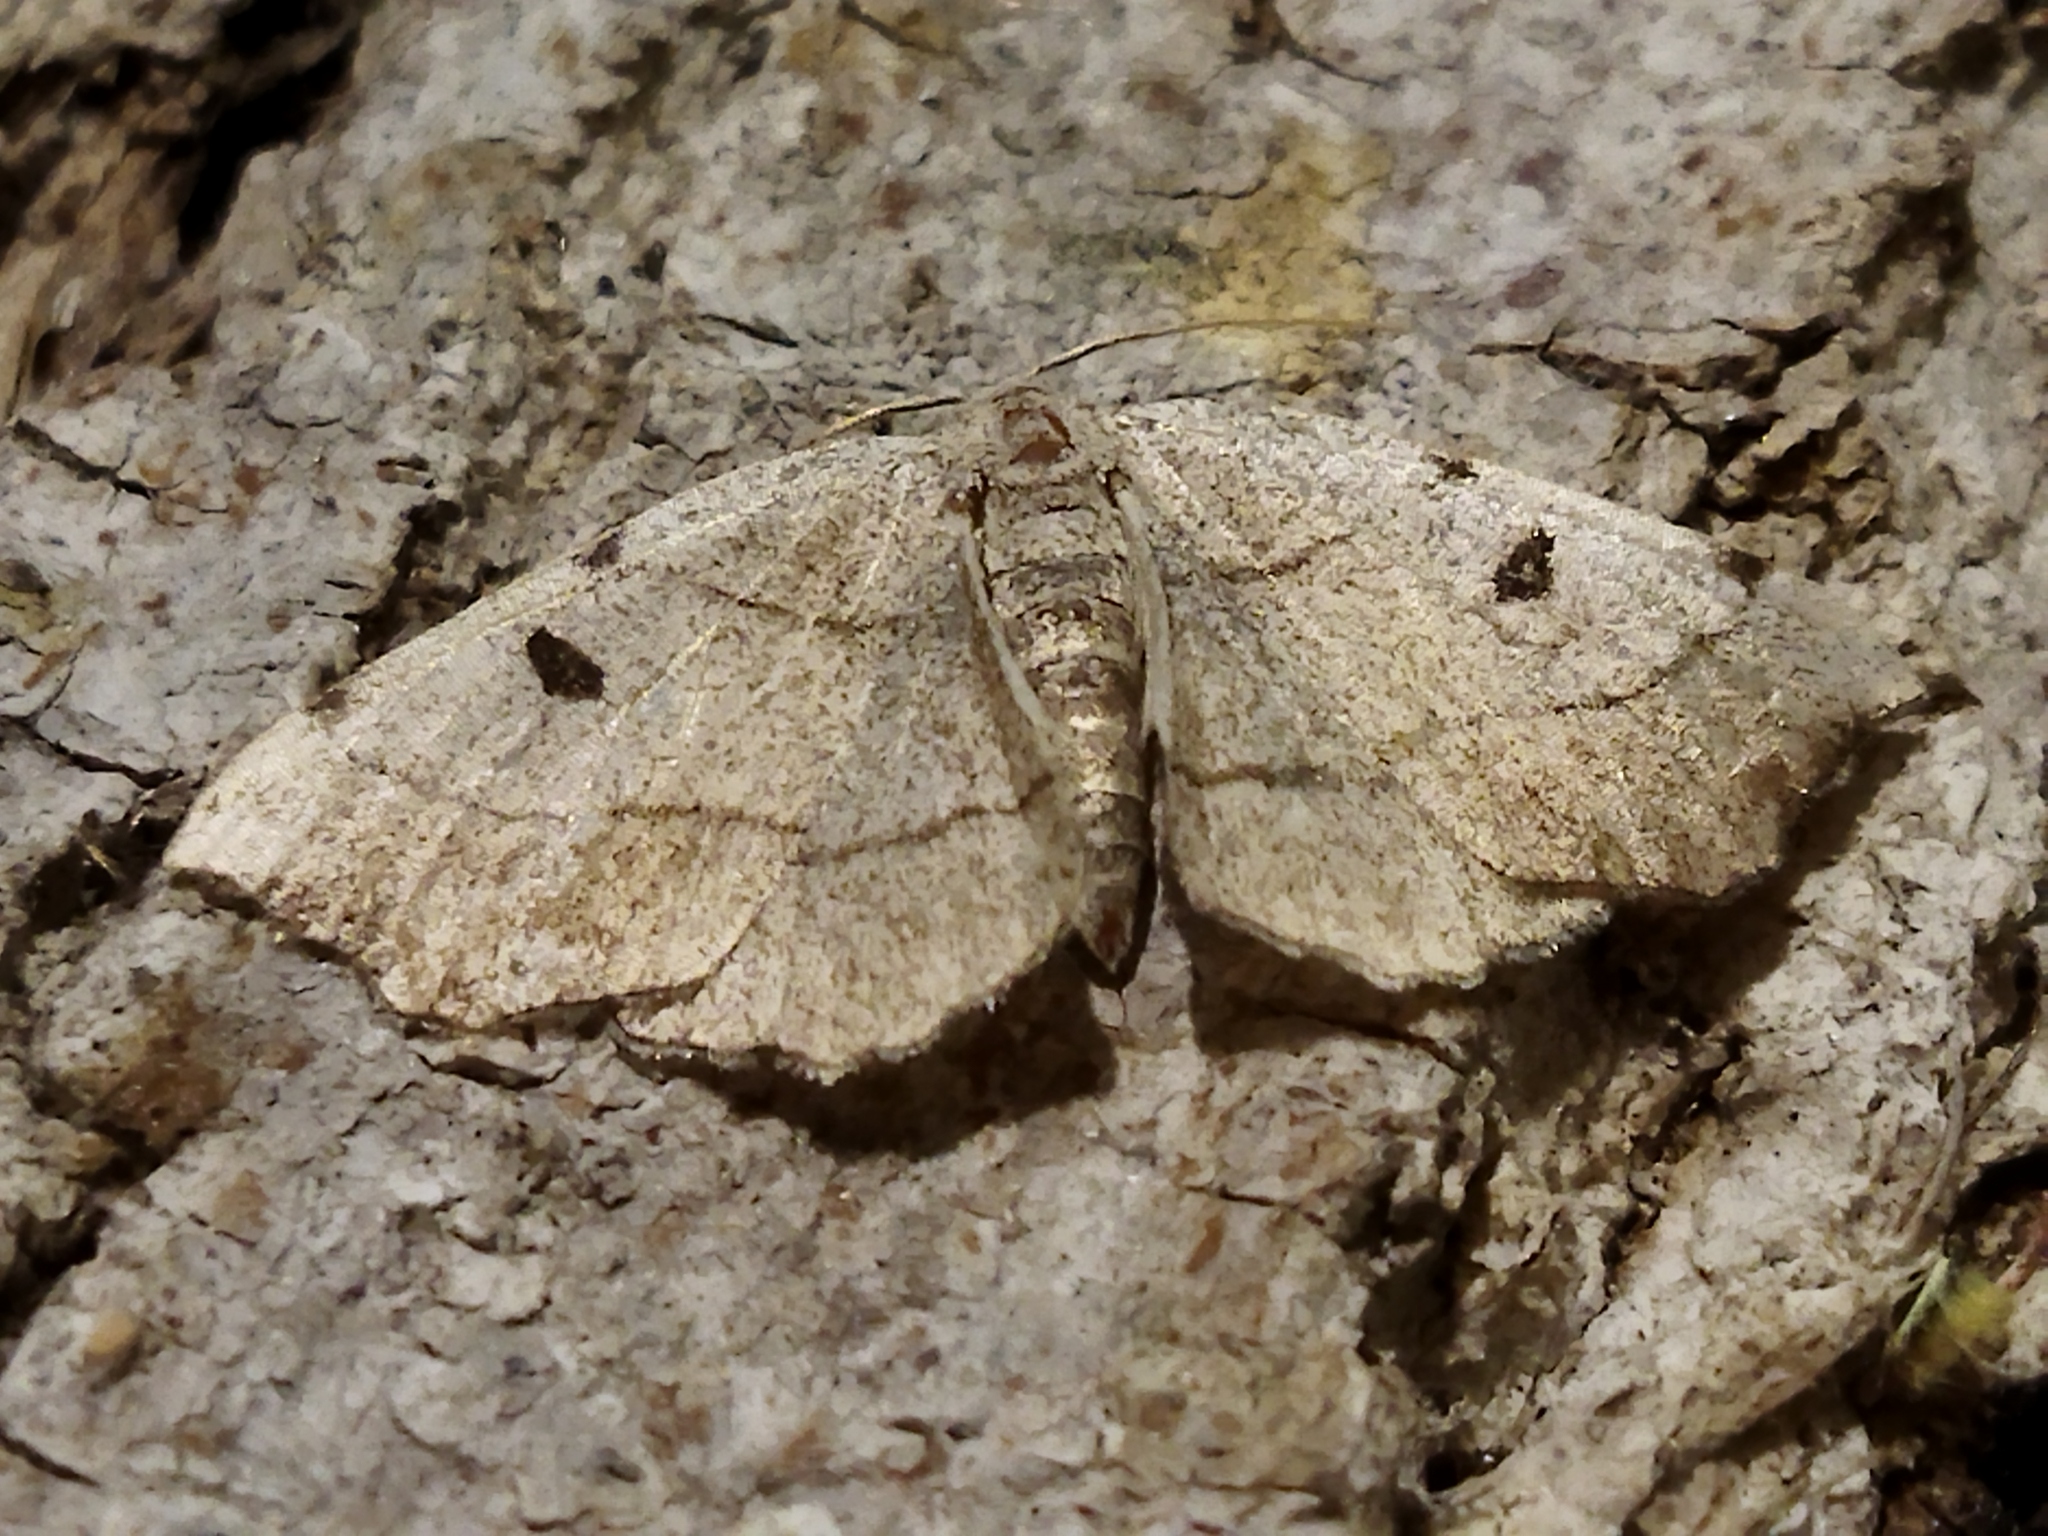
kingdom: Animalia
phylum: Arthropoda
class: Insecta
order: Lepidoptera
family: Geometridae
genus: Eilicrinia
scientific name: Eilicrinia trinotata
